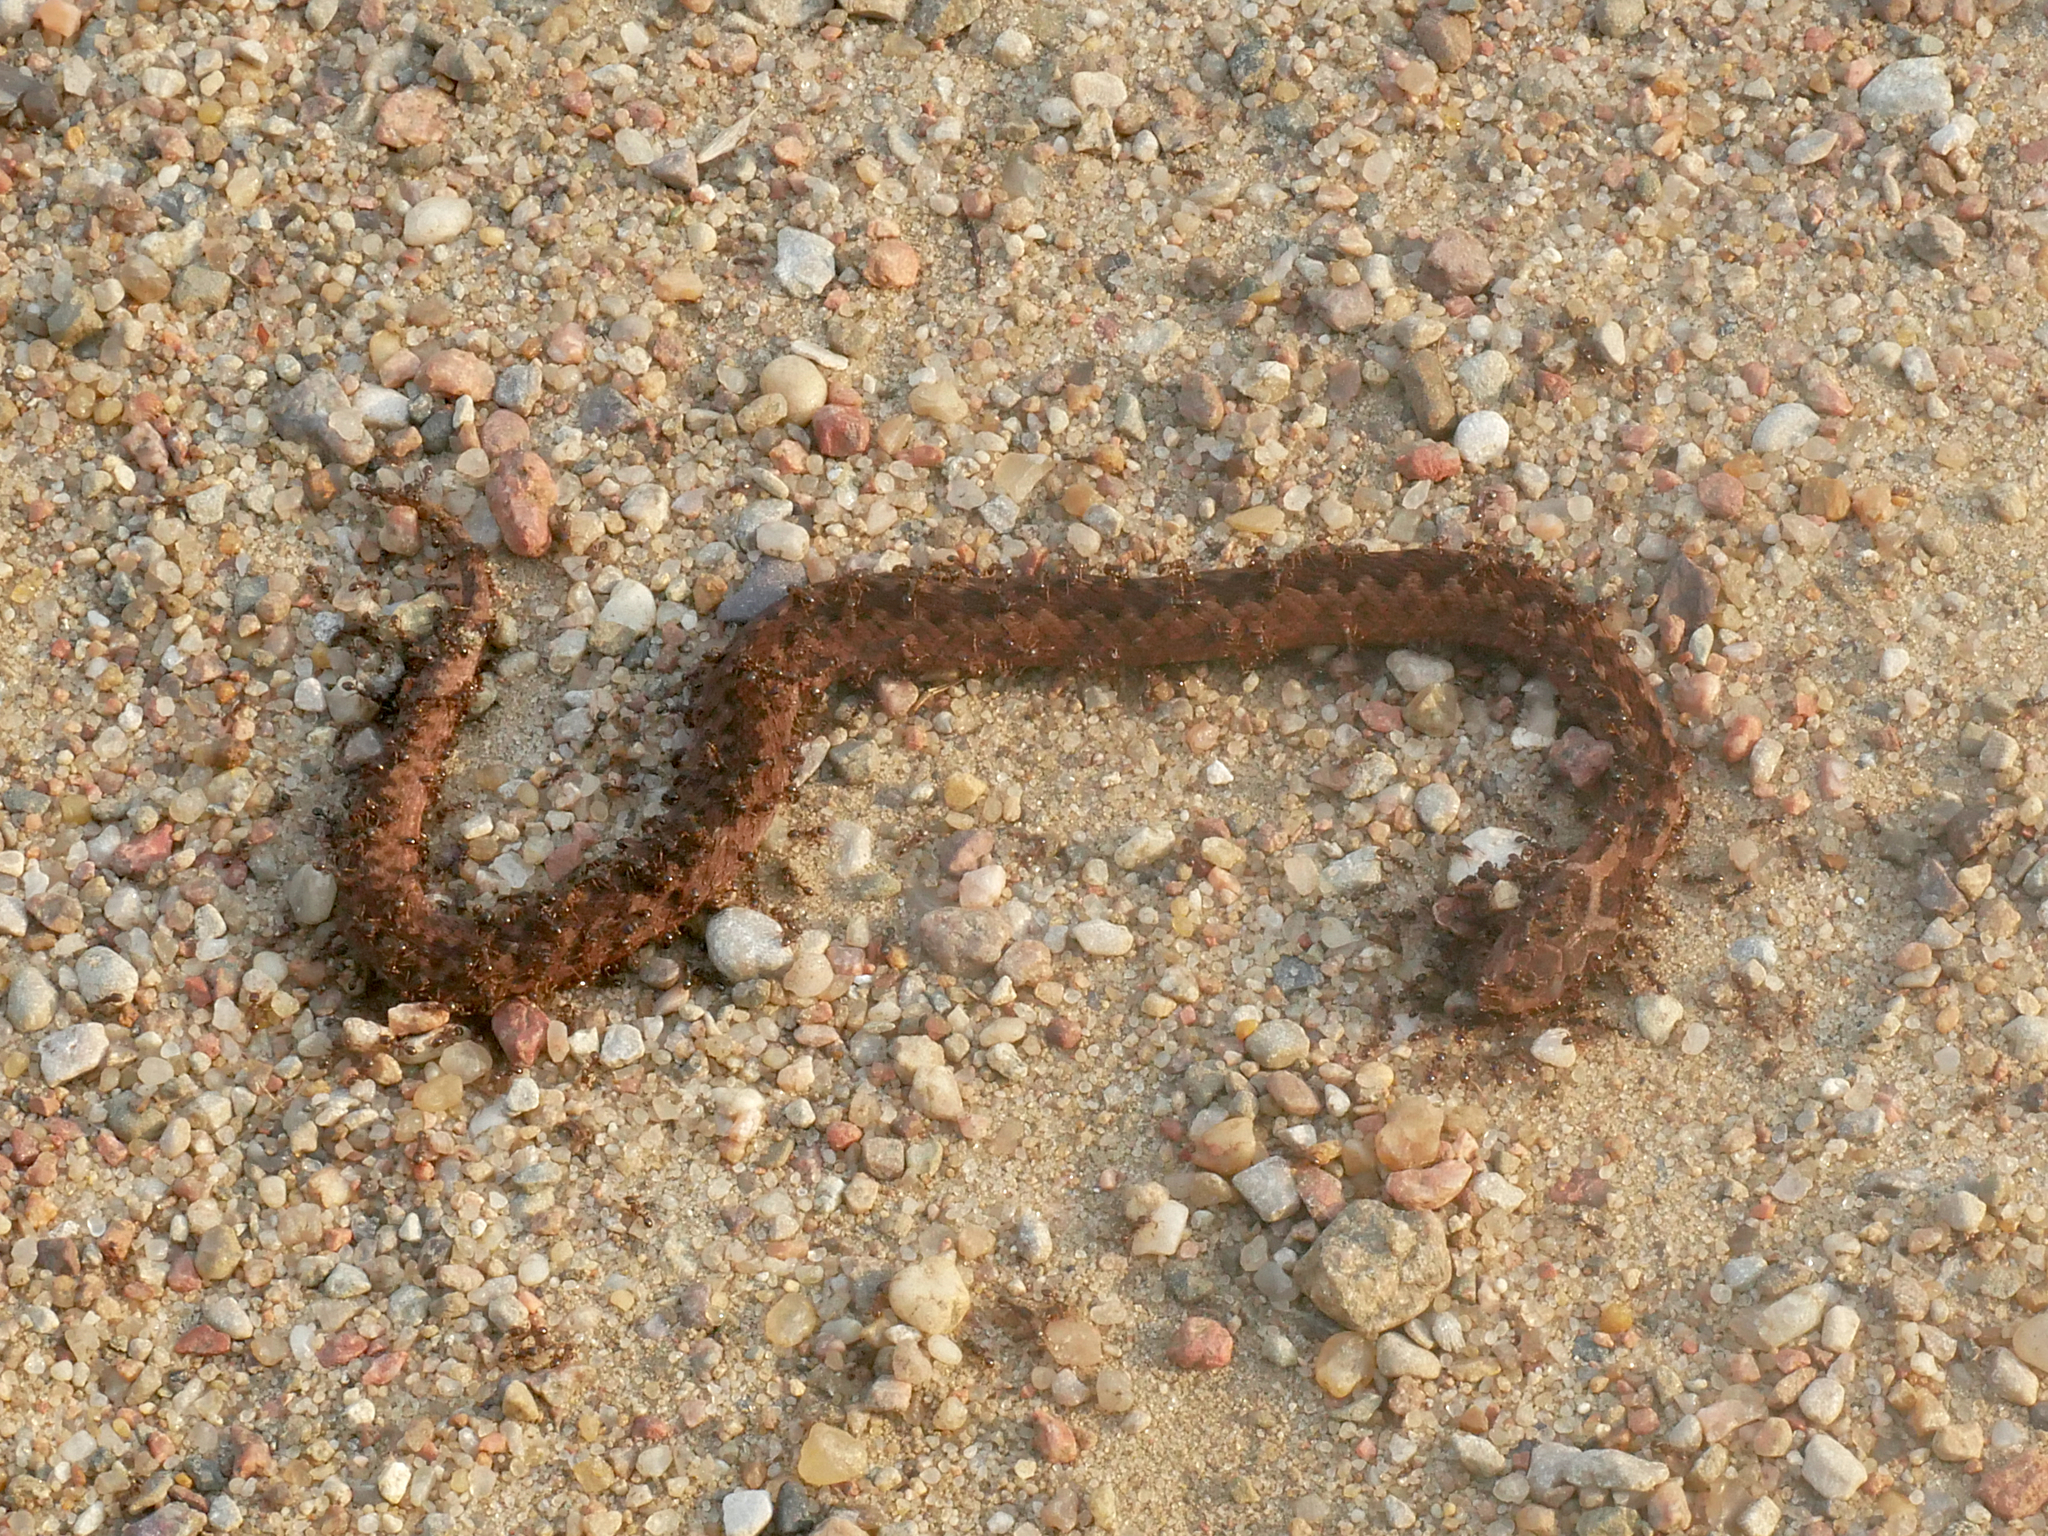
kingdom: Animalia
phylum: Chordata
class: Squamata
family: Viperidae
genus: Vipera
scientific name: Vipera berus
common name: Adder
